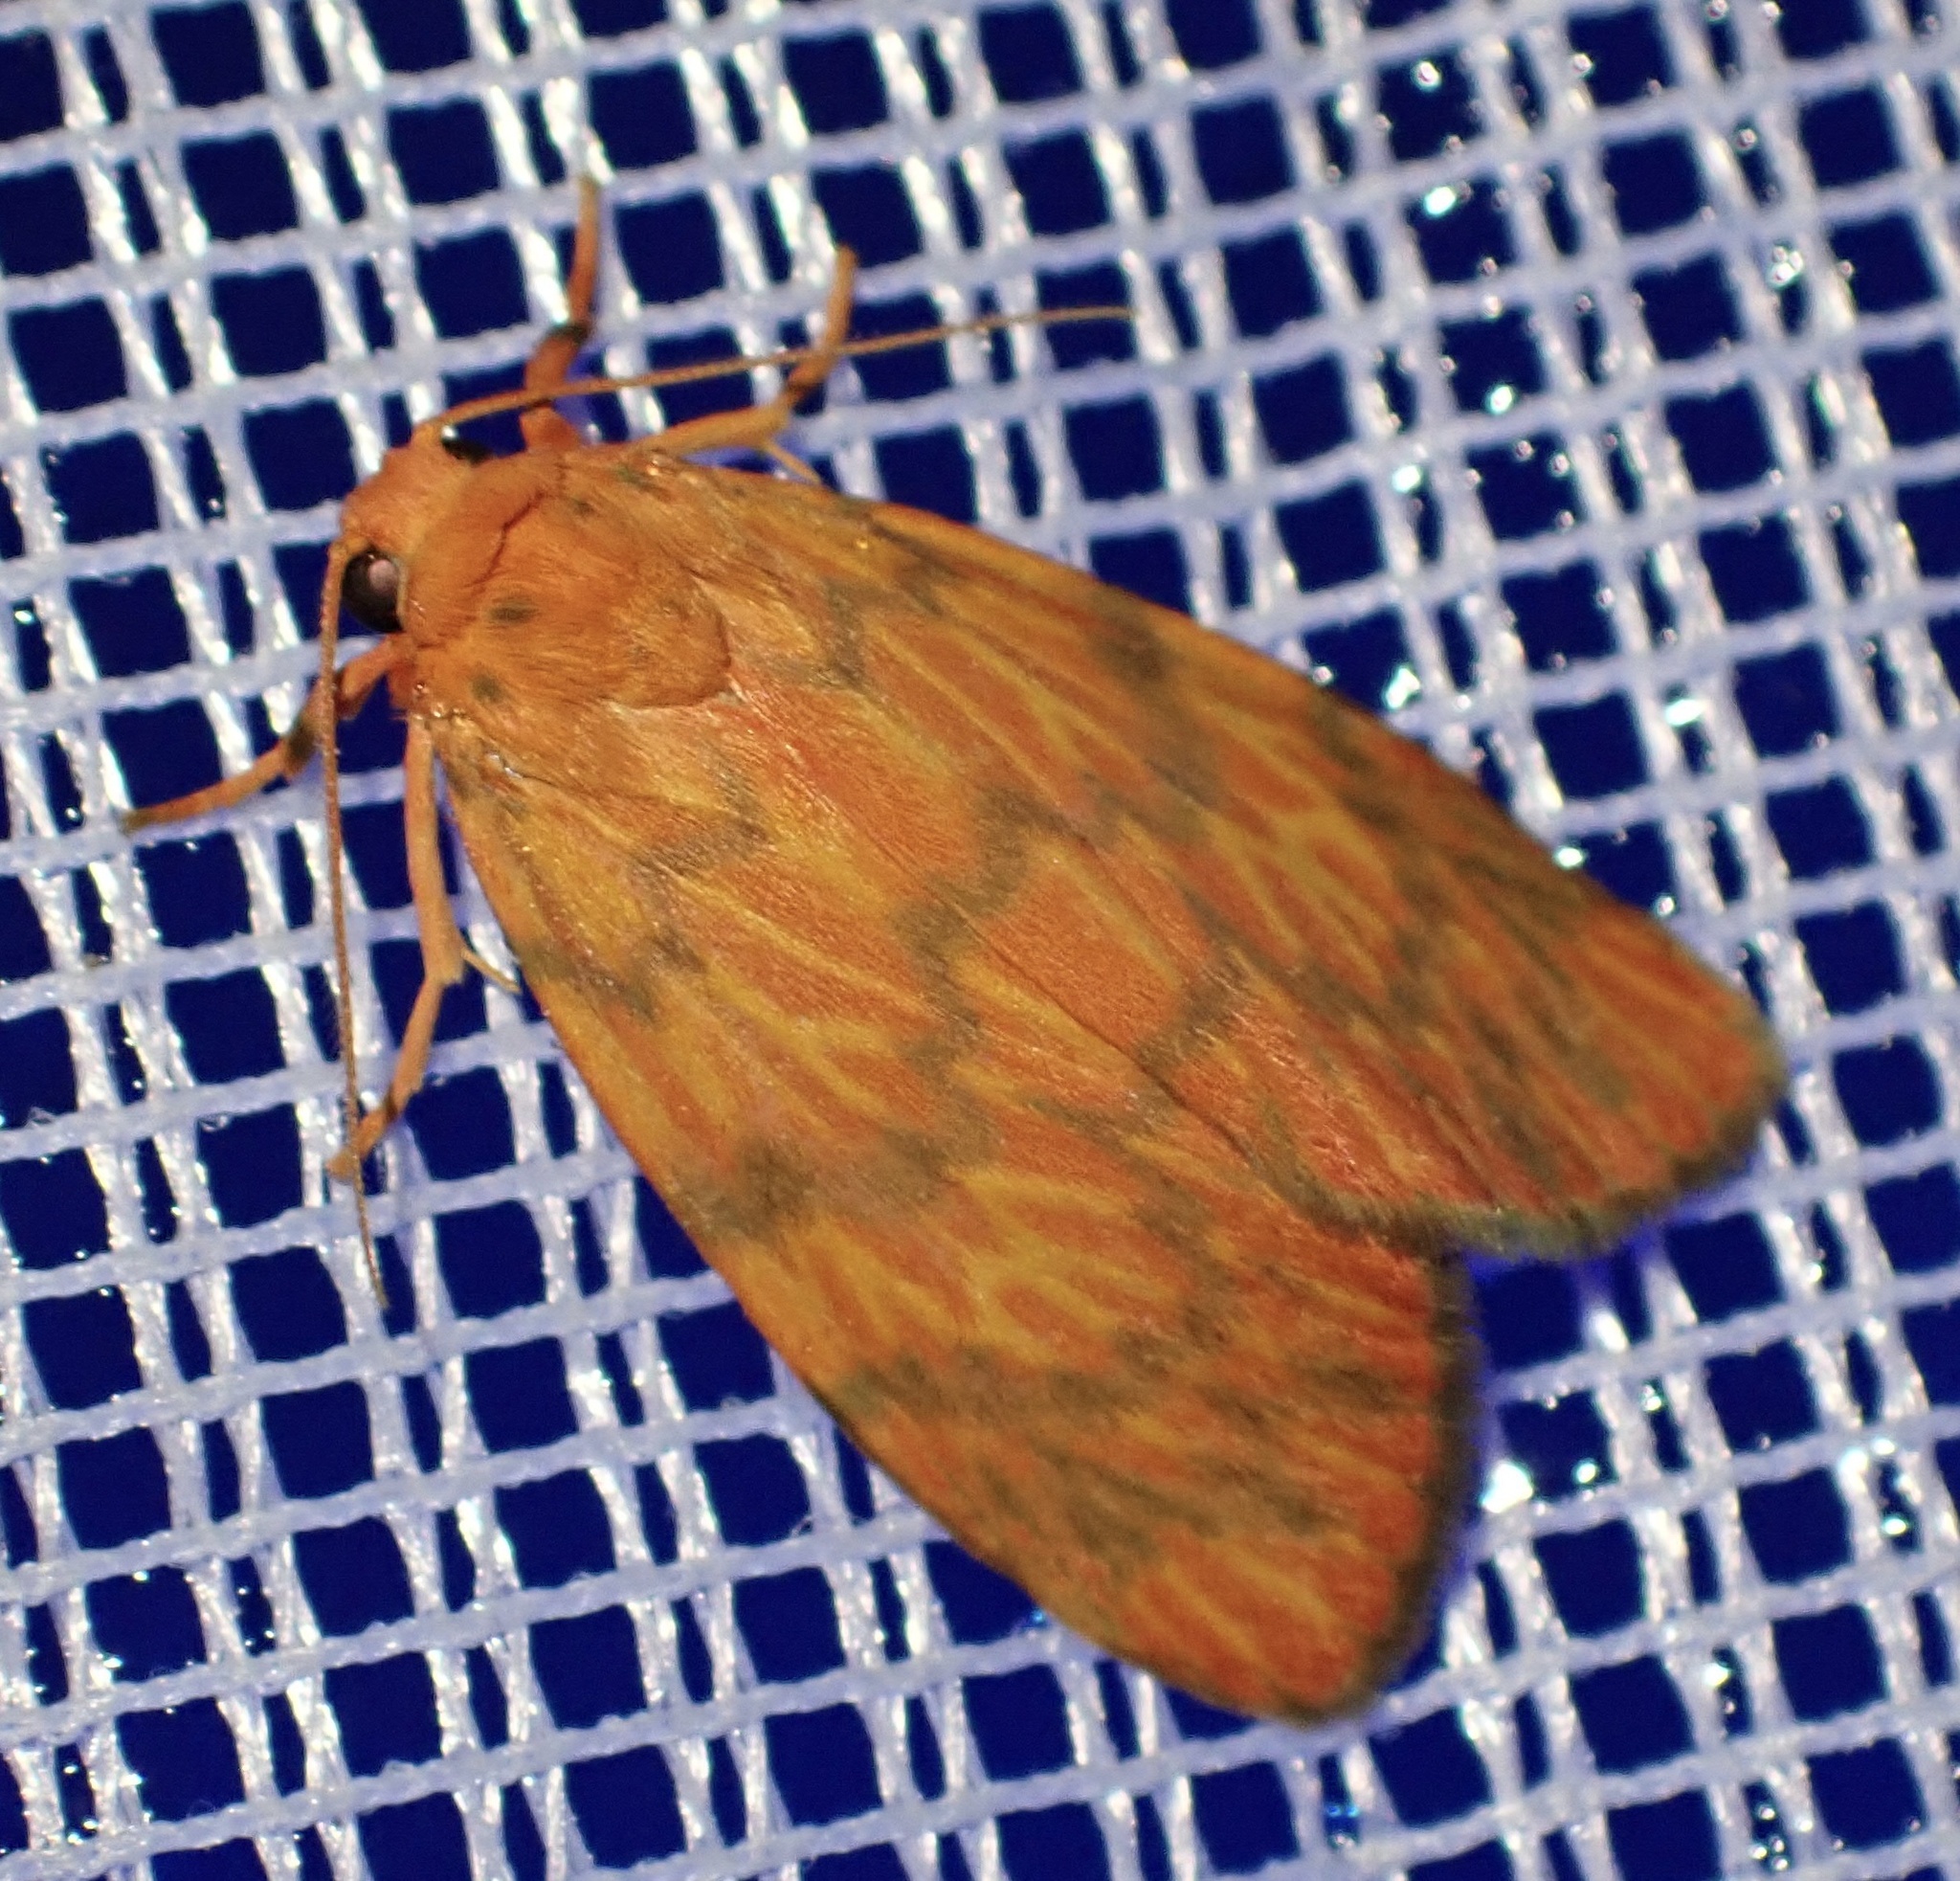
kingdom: Animalia
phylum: Arthropoda
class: Insecta
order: Lepidoptera
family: Erebidae
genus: Cyme
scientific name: Cyme aroa
